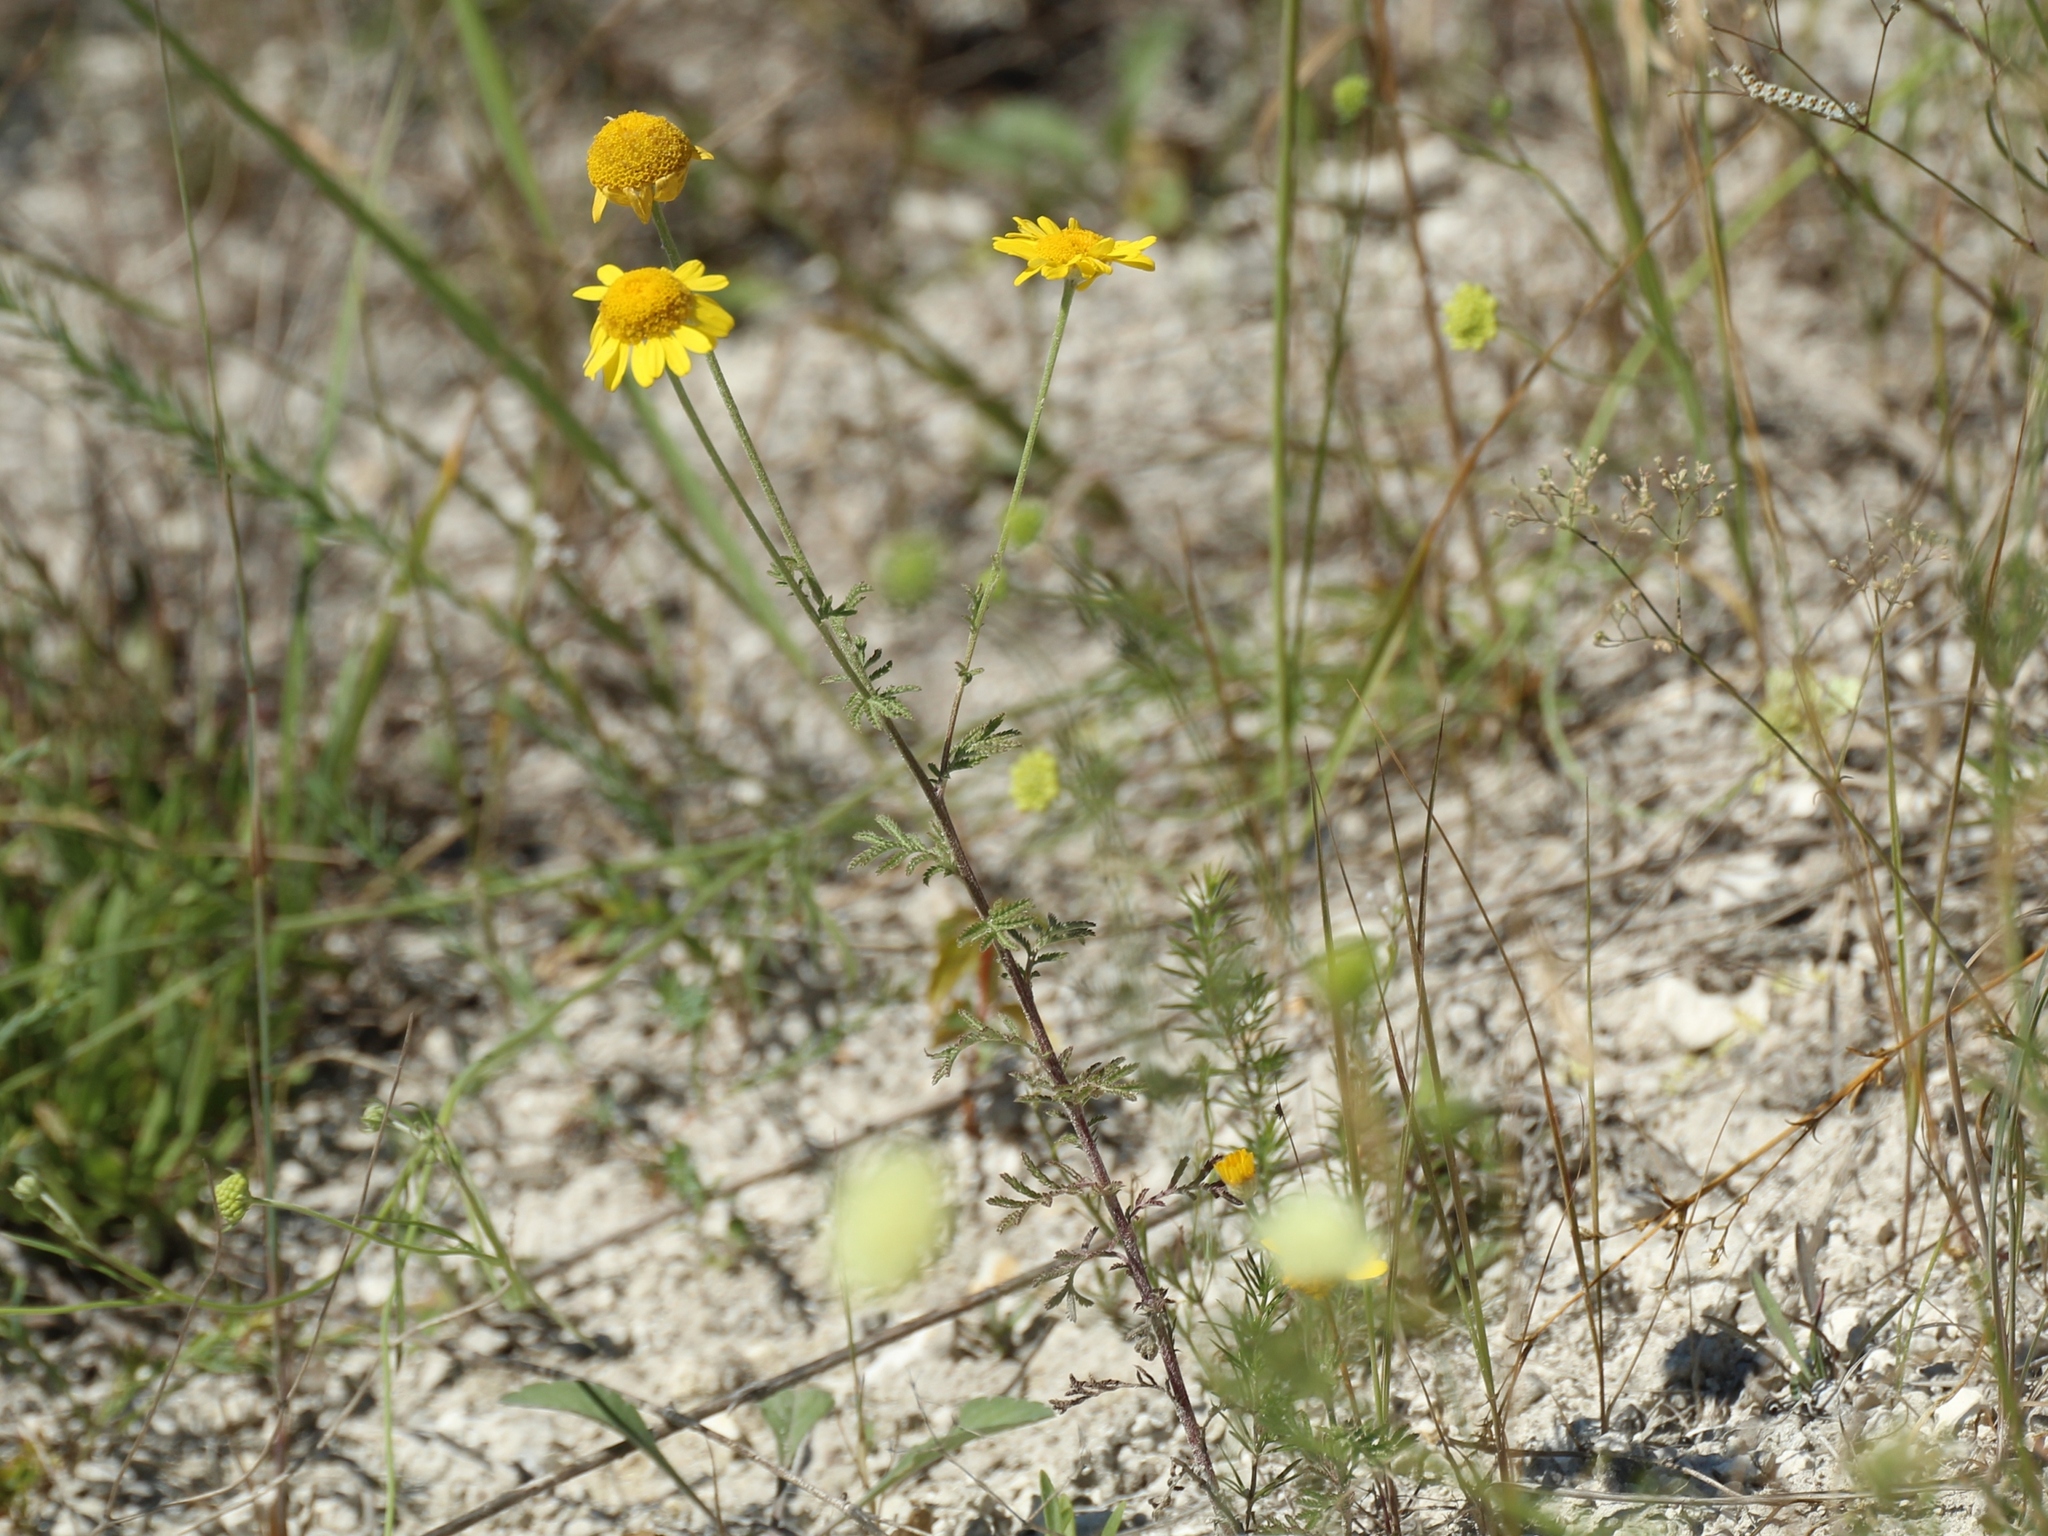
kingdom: Plantae
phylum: Tracheophyta
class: Magnoliopsida
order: Asterales
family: Asteraceae
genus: Cota
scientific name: Cota tinctoria
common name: Golden chamomile
